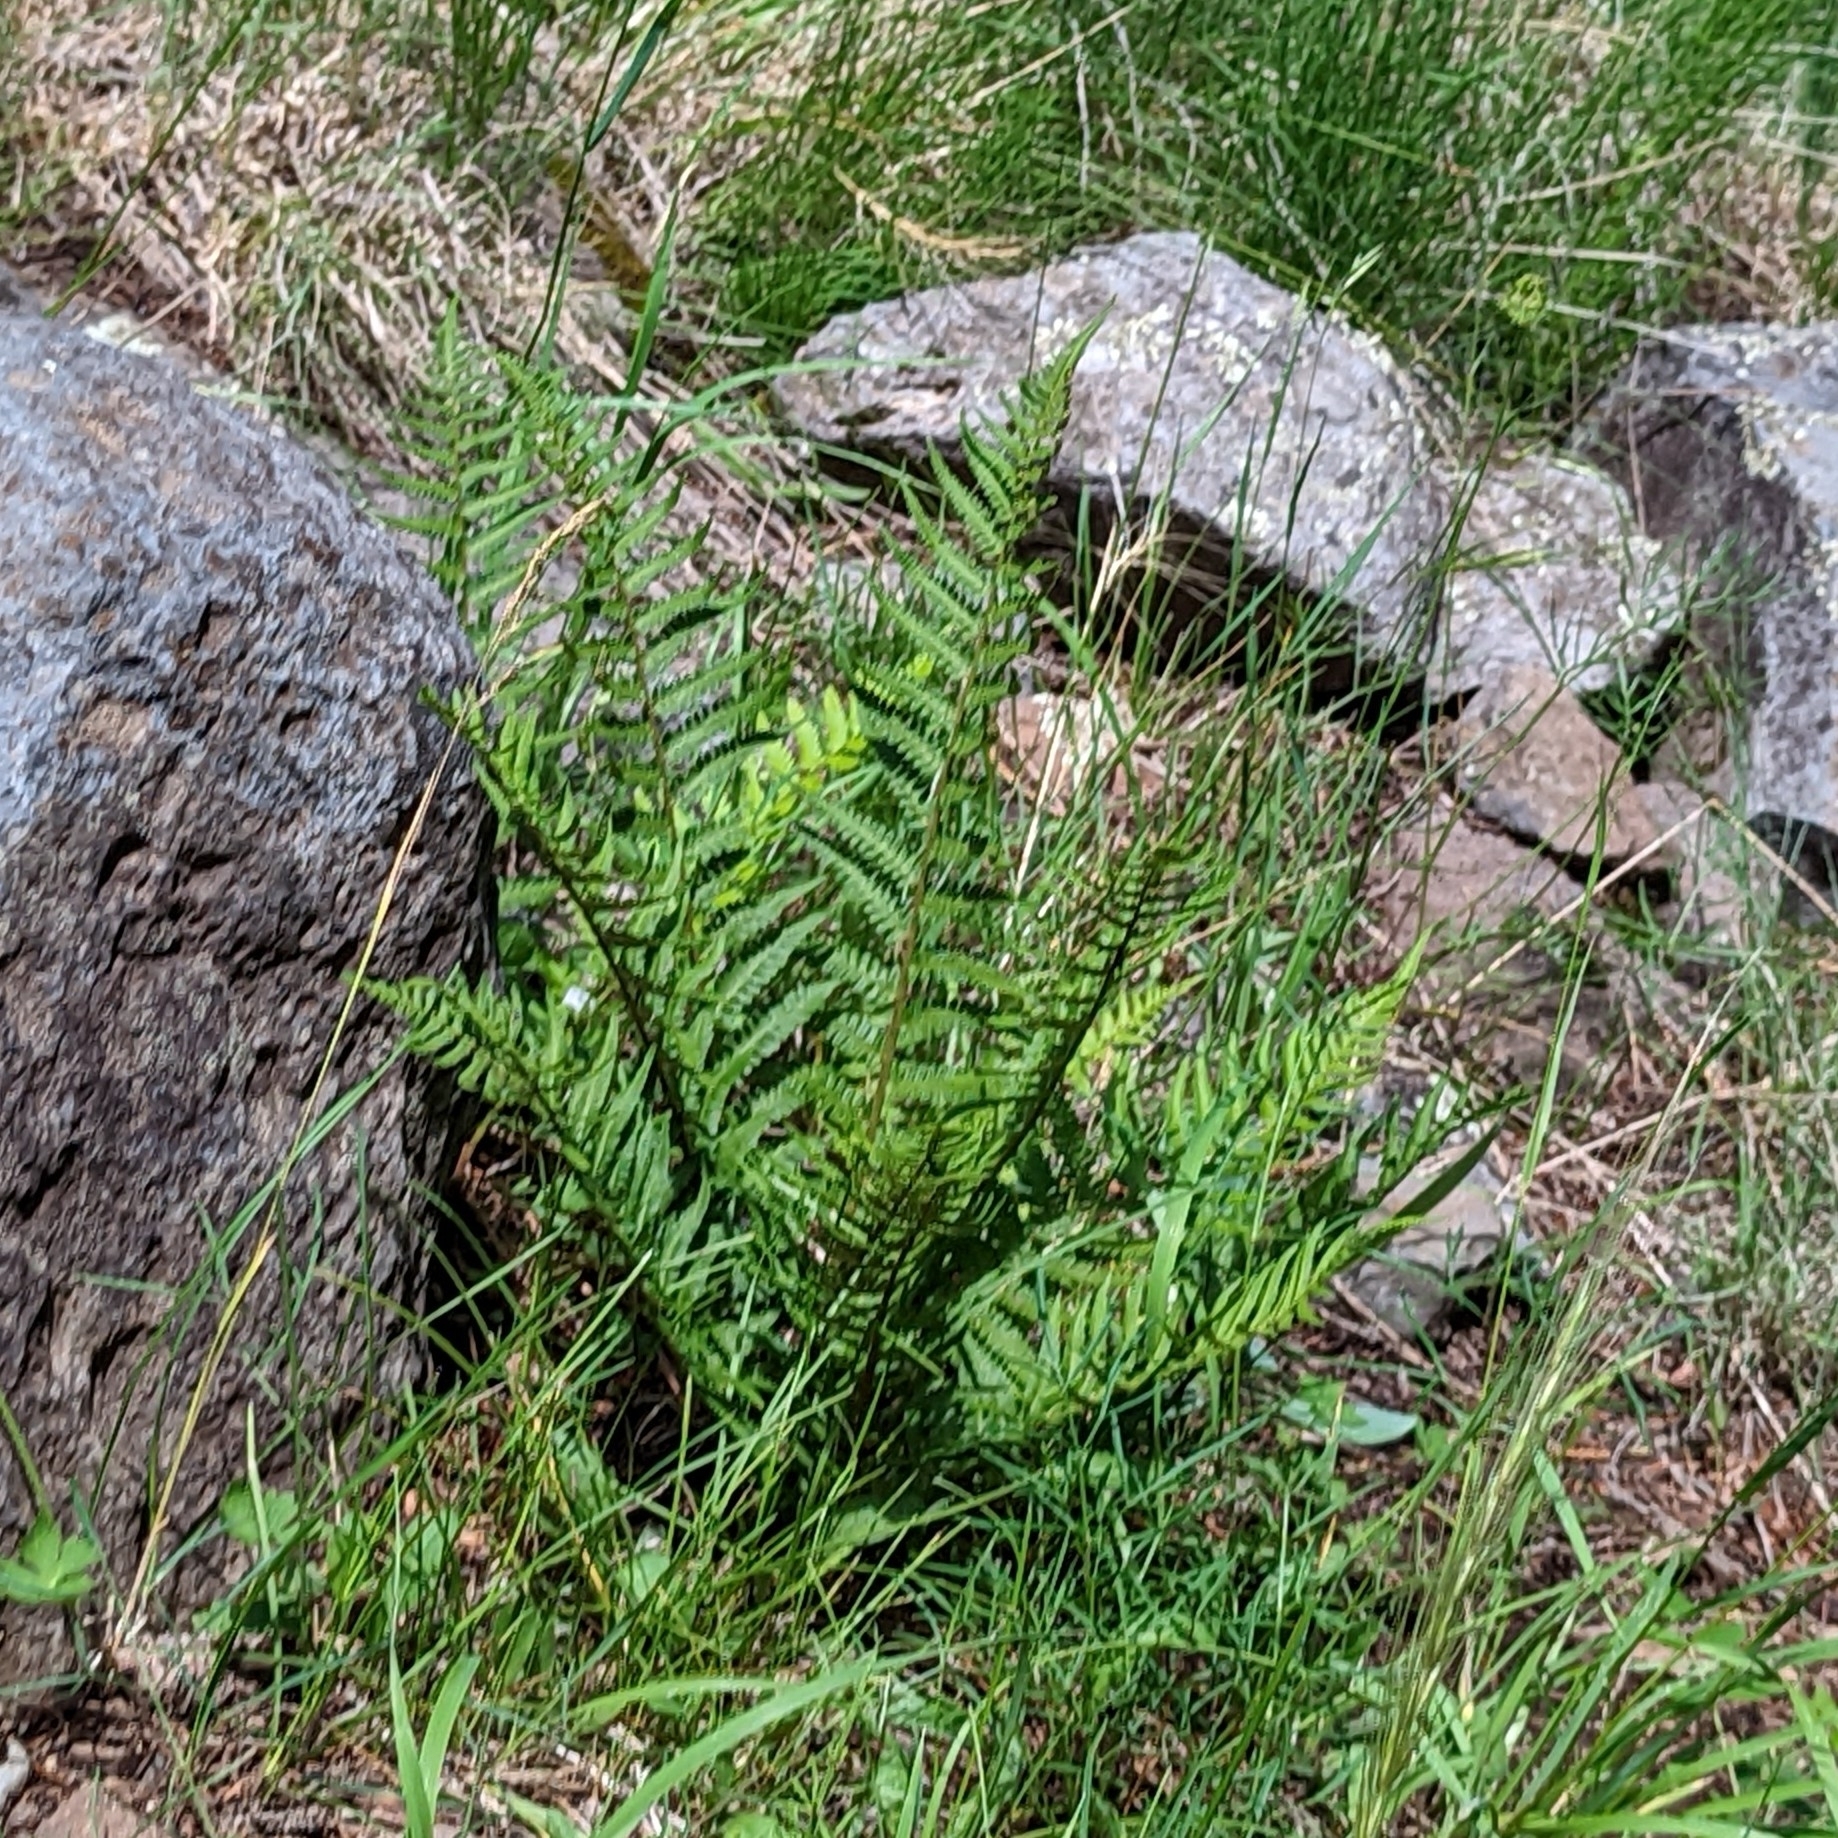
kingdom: Plantae
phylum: Tracheophyta
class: Polypodiopsida
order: Polypodiales
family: Dryopteridaceae
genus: Dryopteris
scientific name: Dryopteris filix-mas
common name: Male fern
